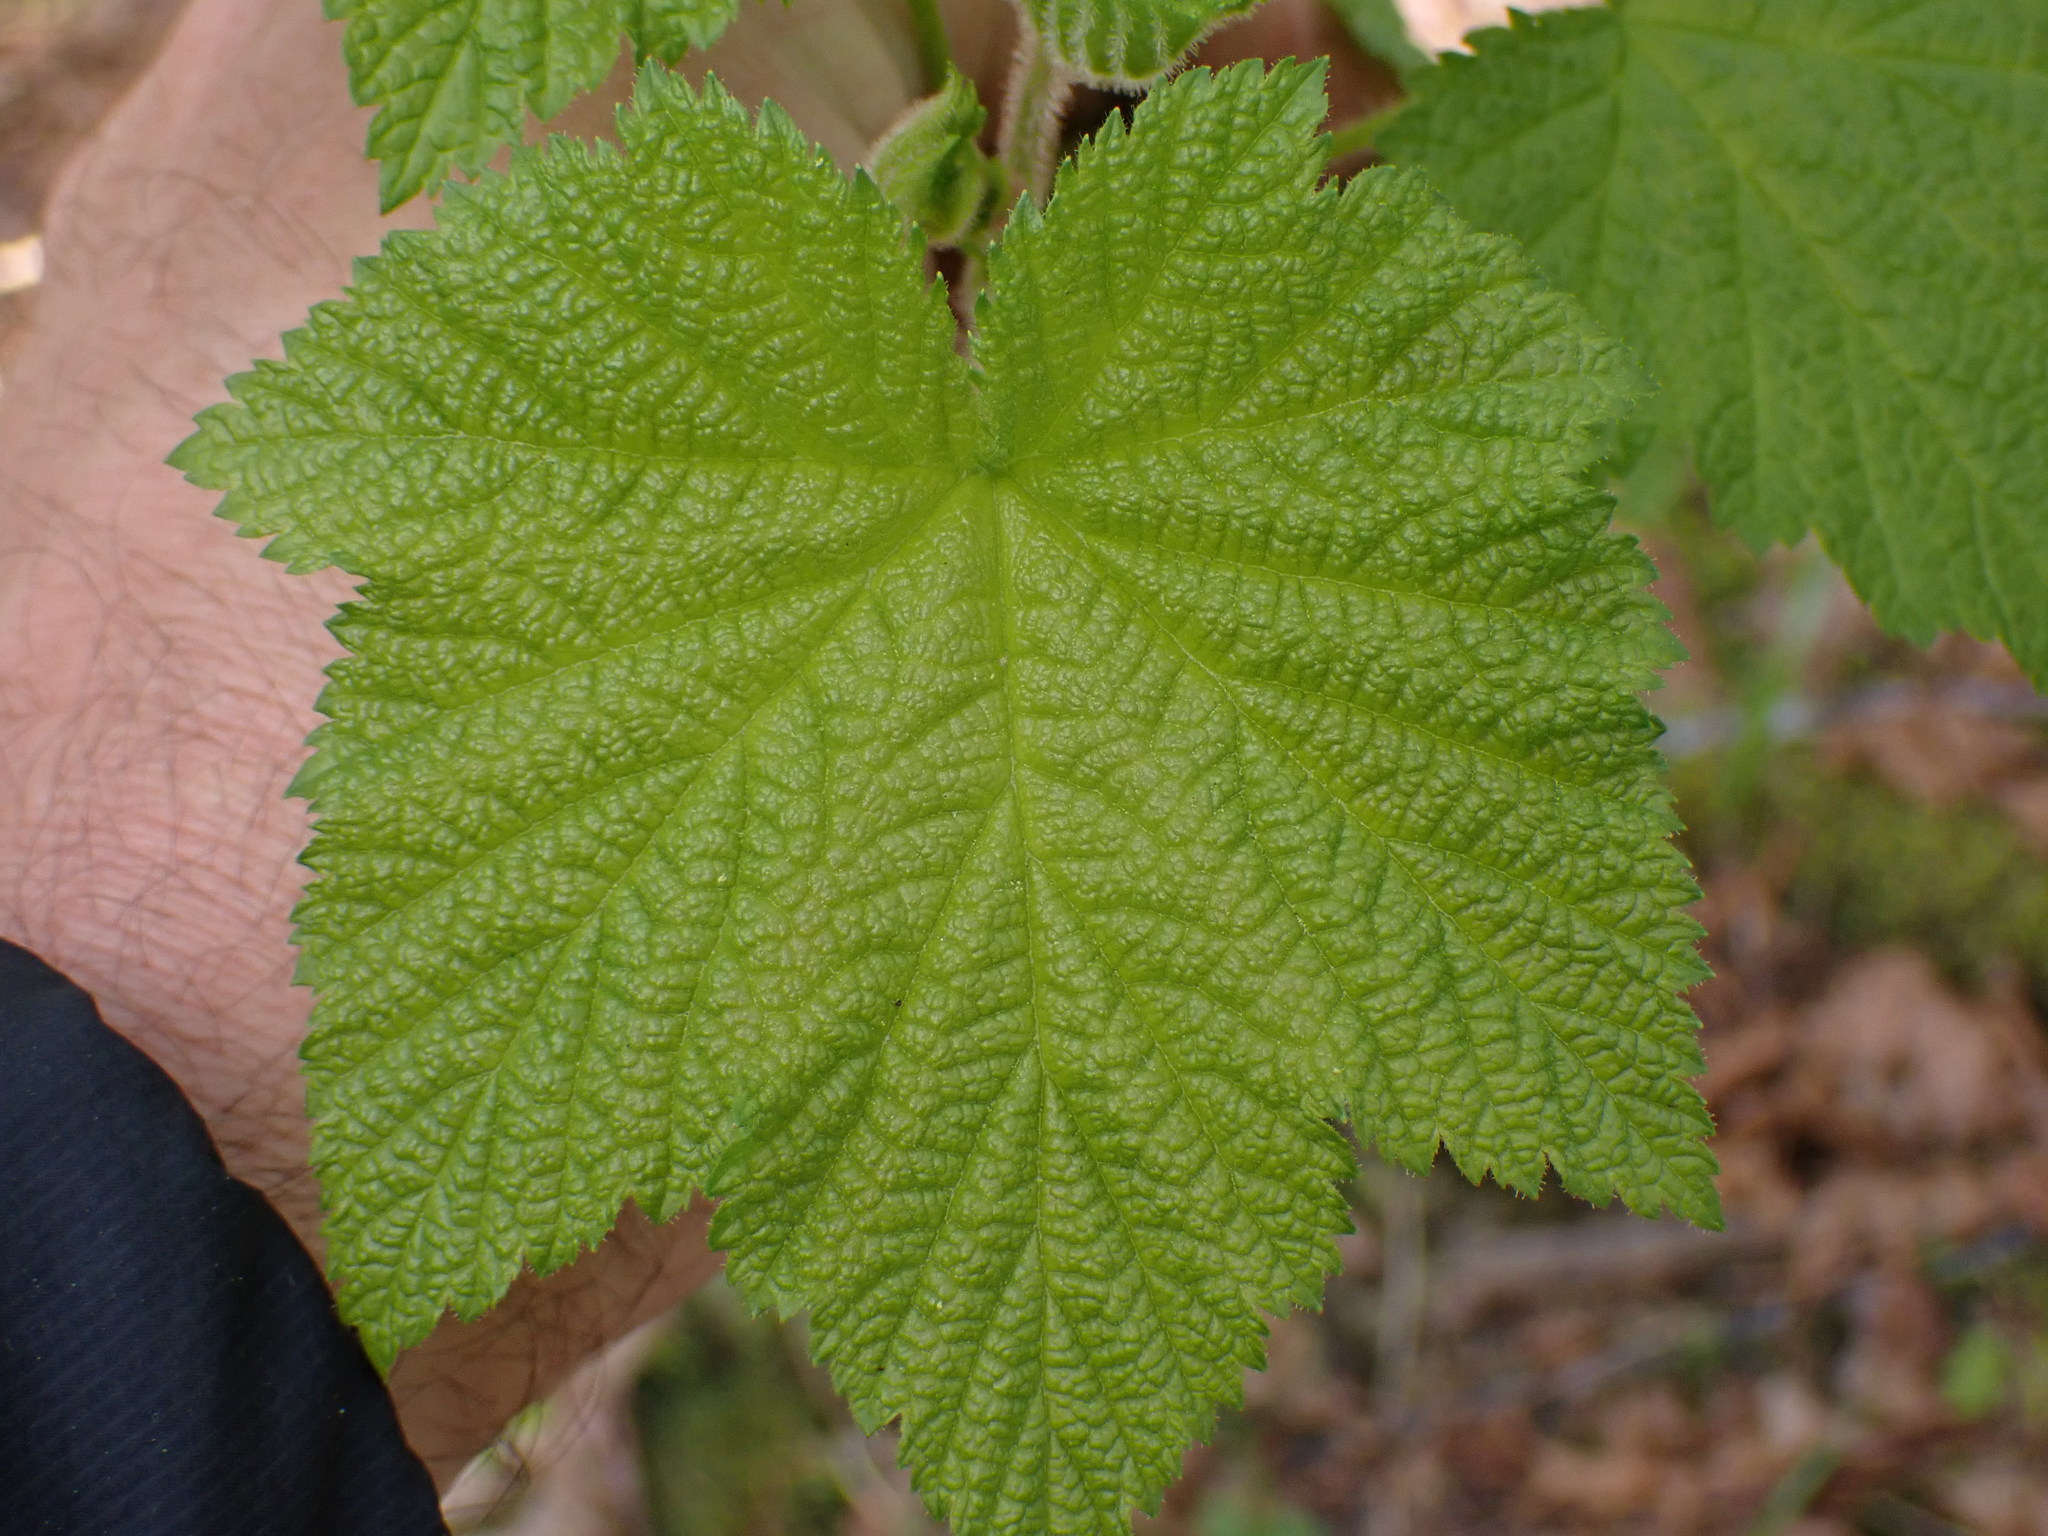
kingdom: Plantae
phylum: Tracheophyta
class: Magnoliopsida
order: Rosales
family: Rosaceae
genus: Rubus
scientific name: Rubus parviflorus
